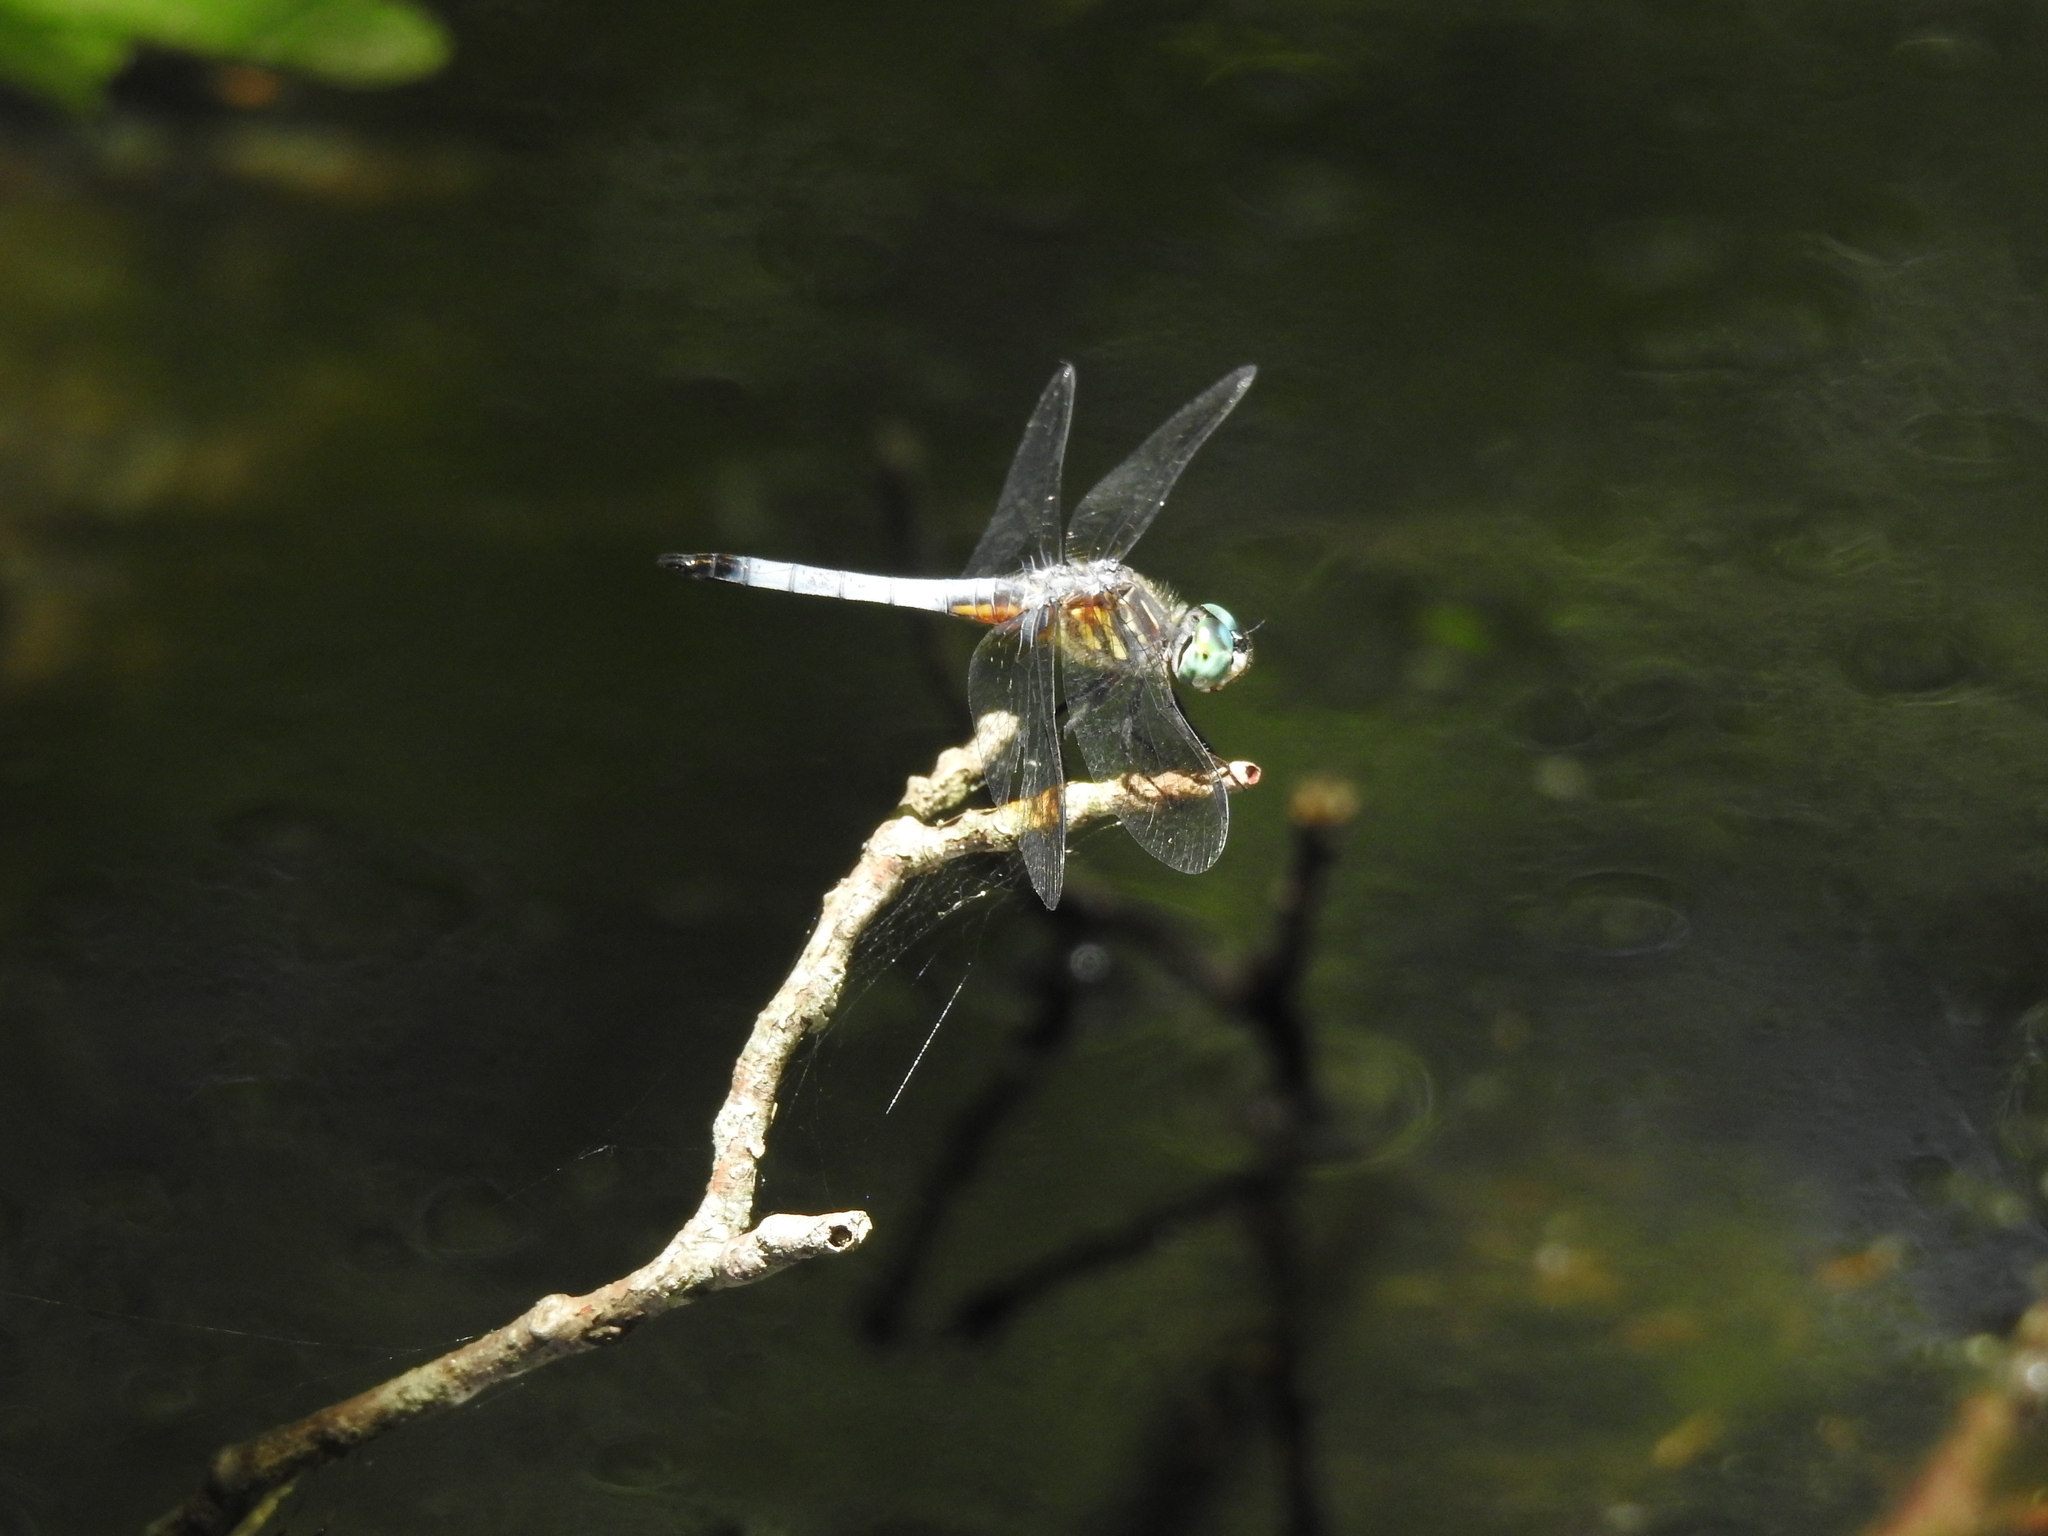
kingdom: Animalia
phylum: Arthropoda
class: Insecta
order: Odonata
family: Libellulidae
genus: Pachydiplax
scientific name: Pachydiplax longipennis
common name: Blue dasher
